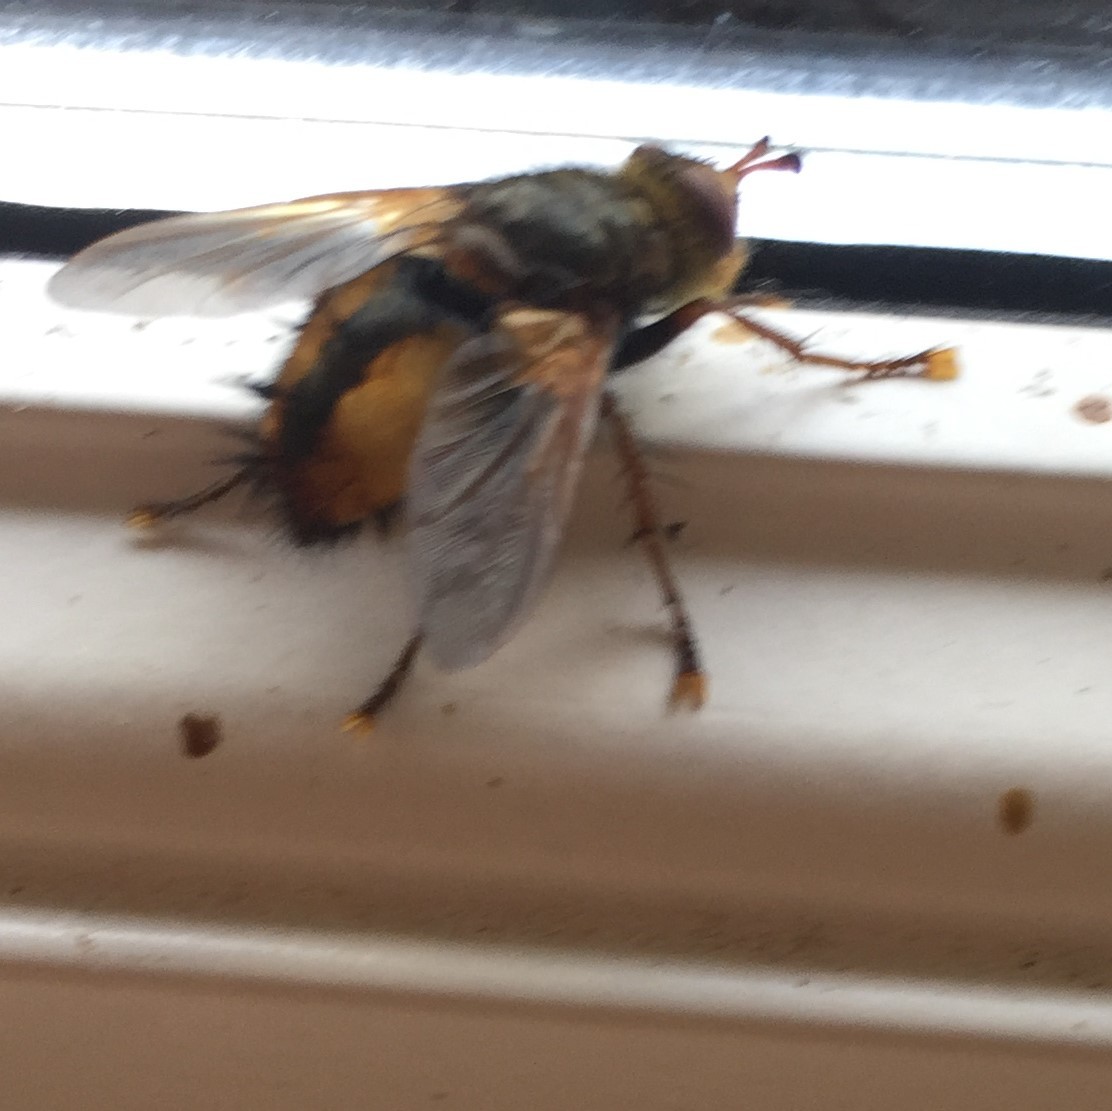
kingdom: Animalia
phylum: Arthropoda
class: Insecta
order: Diptera
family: Tachinidae
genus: Tachina
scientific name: Tachina fera
